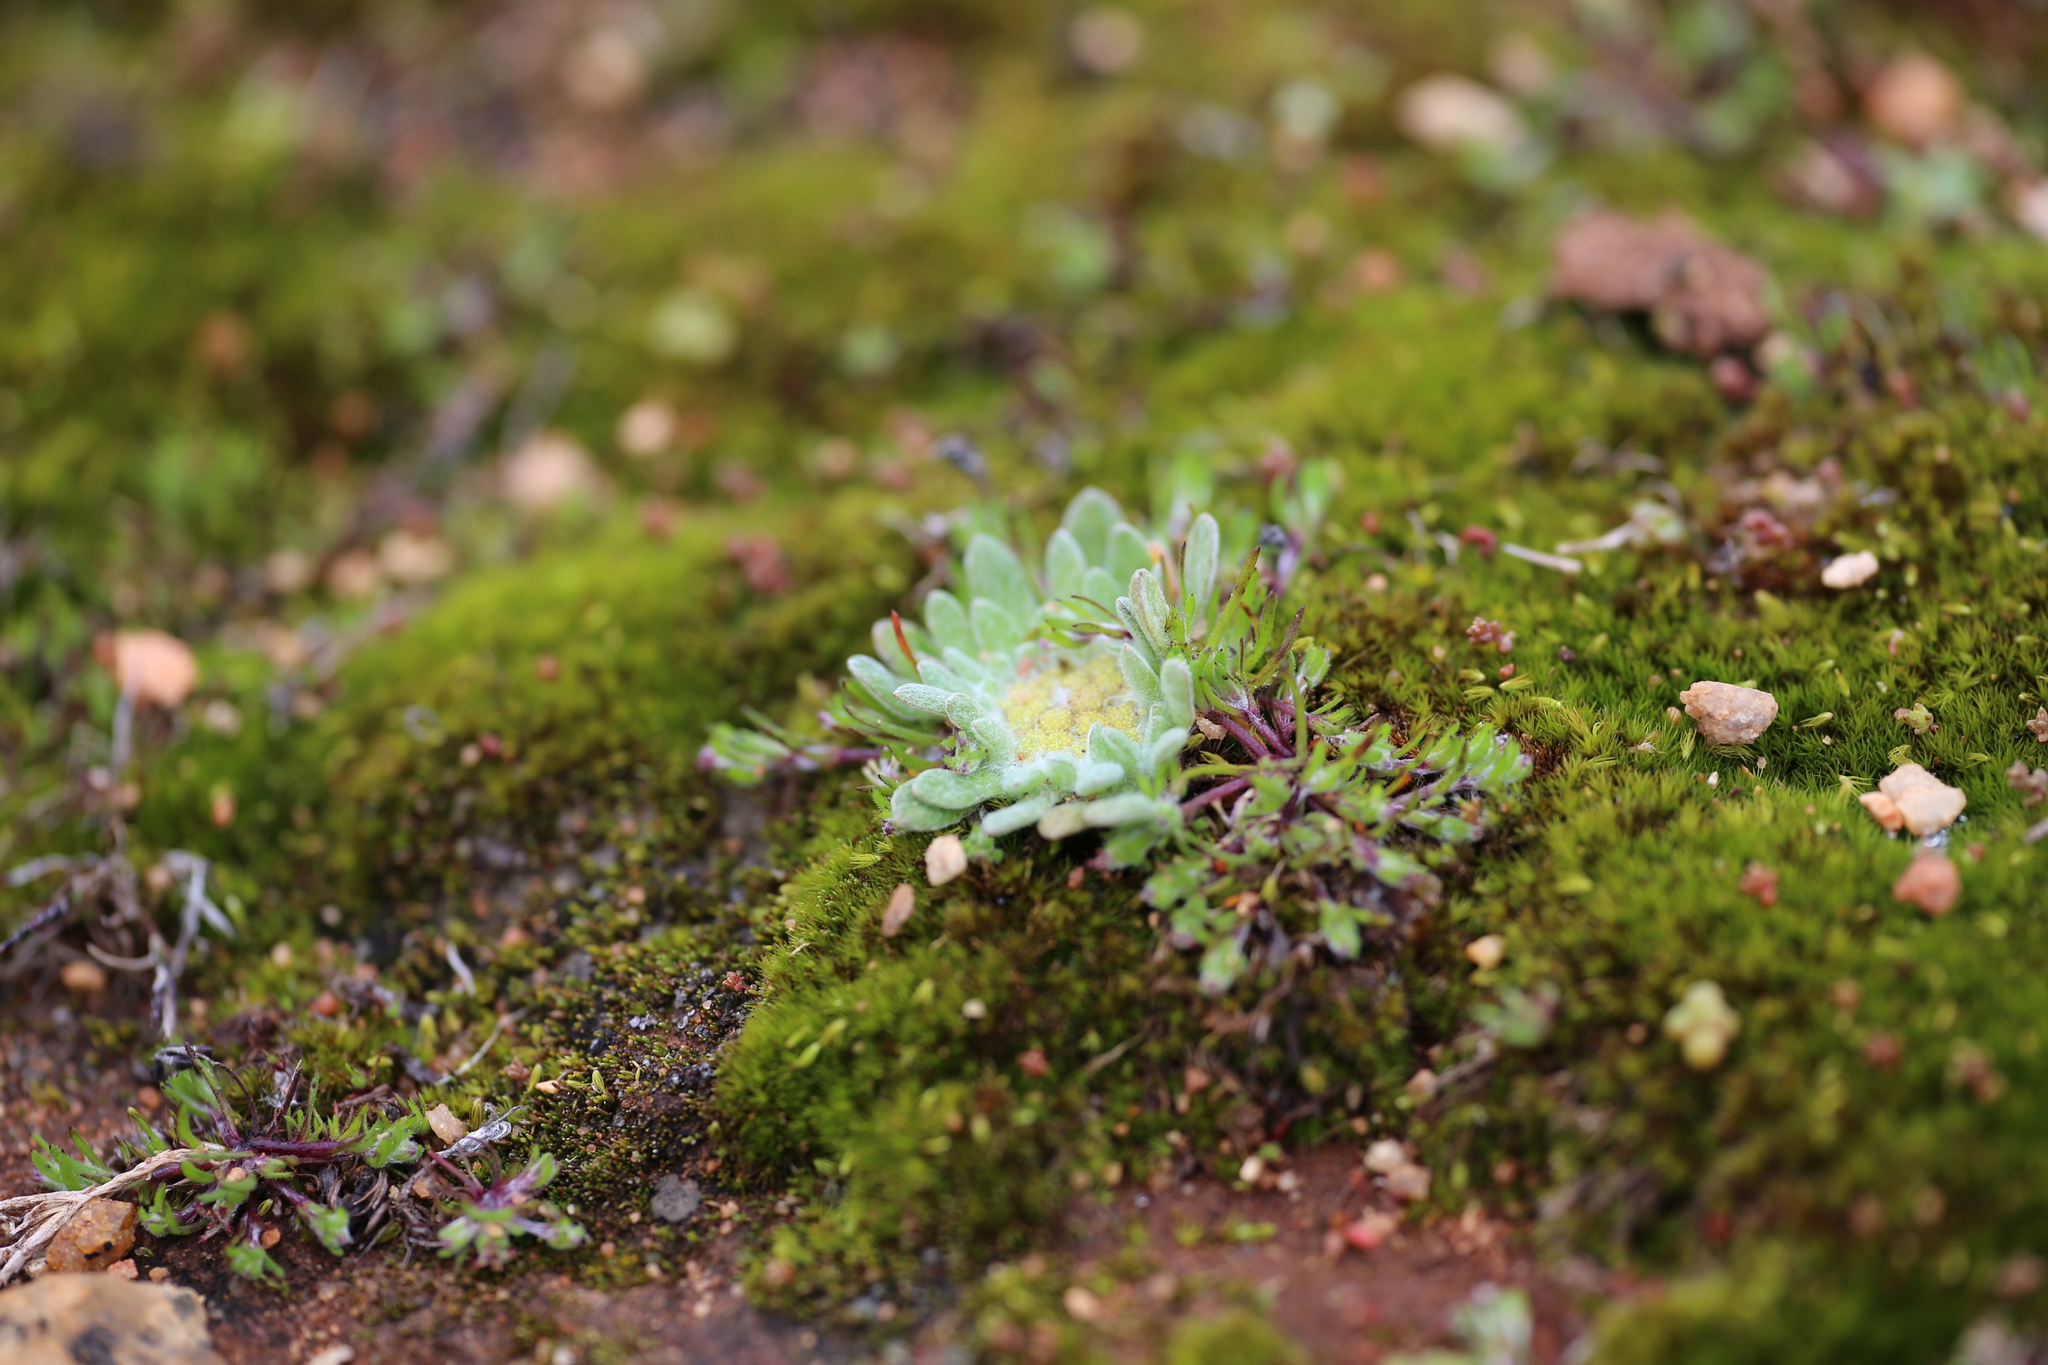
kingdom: Plantae
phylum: Tracheophyta
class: Magnoliopsida
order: Asterales
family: Asteraceae
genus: Chthonocephalus
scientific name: Chthonocephalus pseudevax
